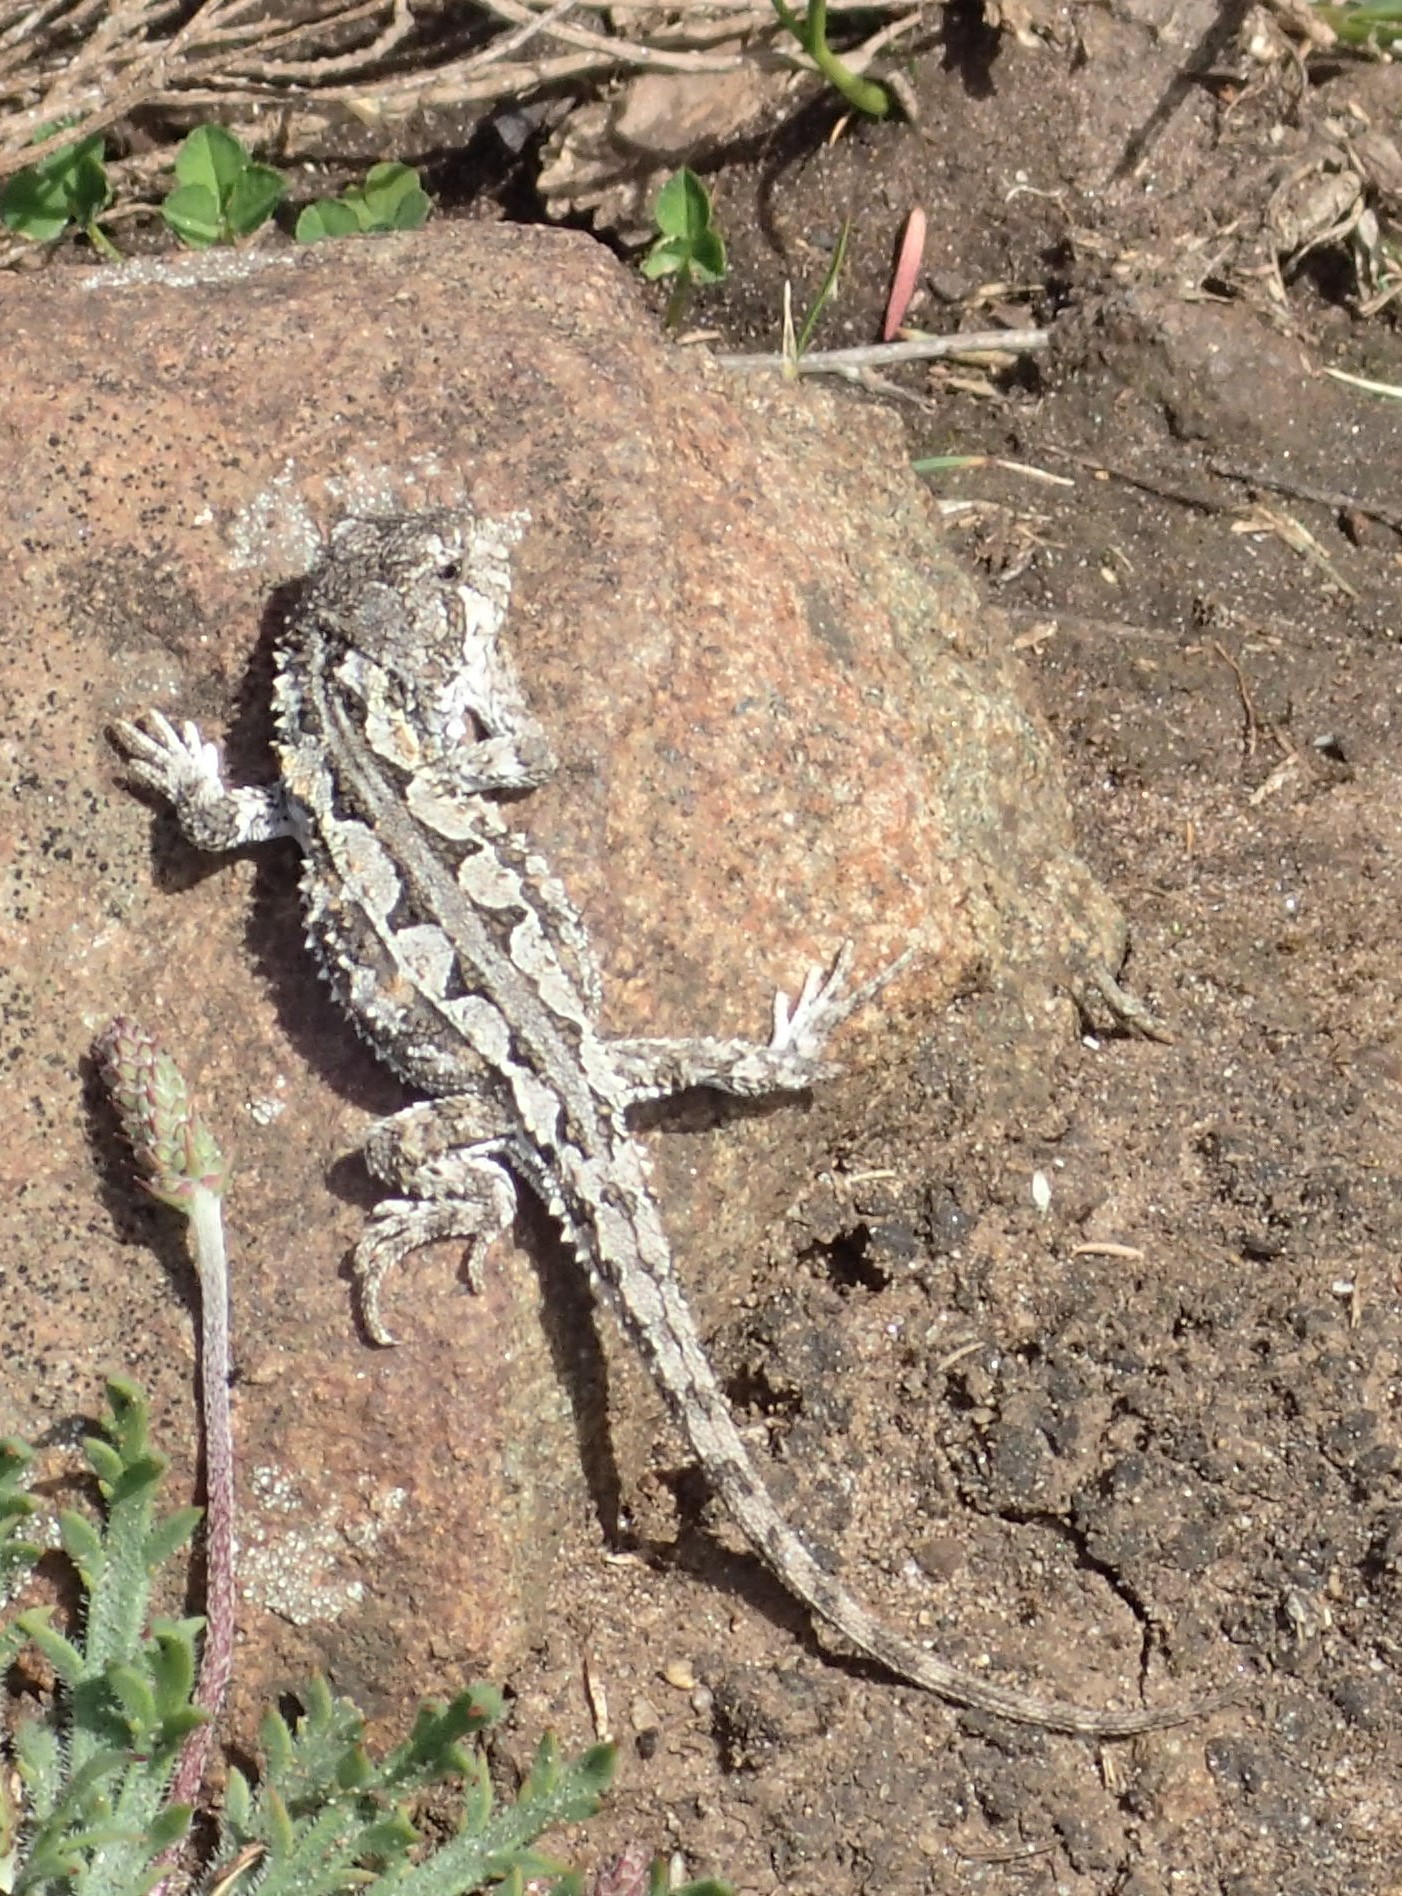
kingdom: Animalia
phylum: Chordata
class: Squamata
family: Agamidae
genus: Rankinia
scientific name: Rankinia diemensis
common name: Mountain dragon
